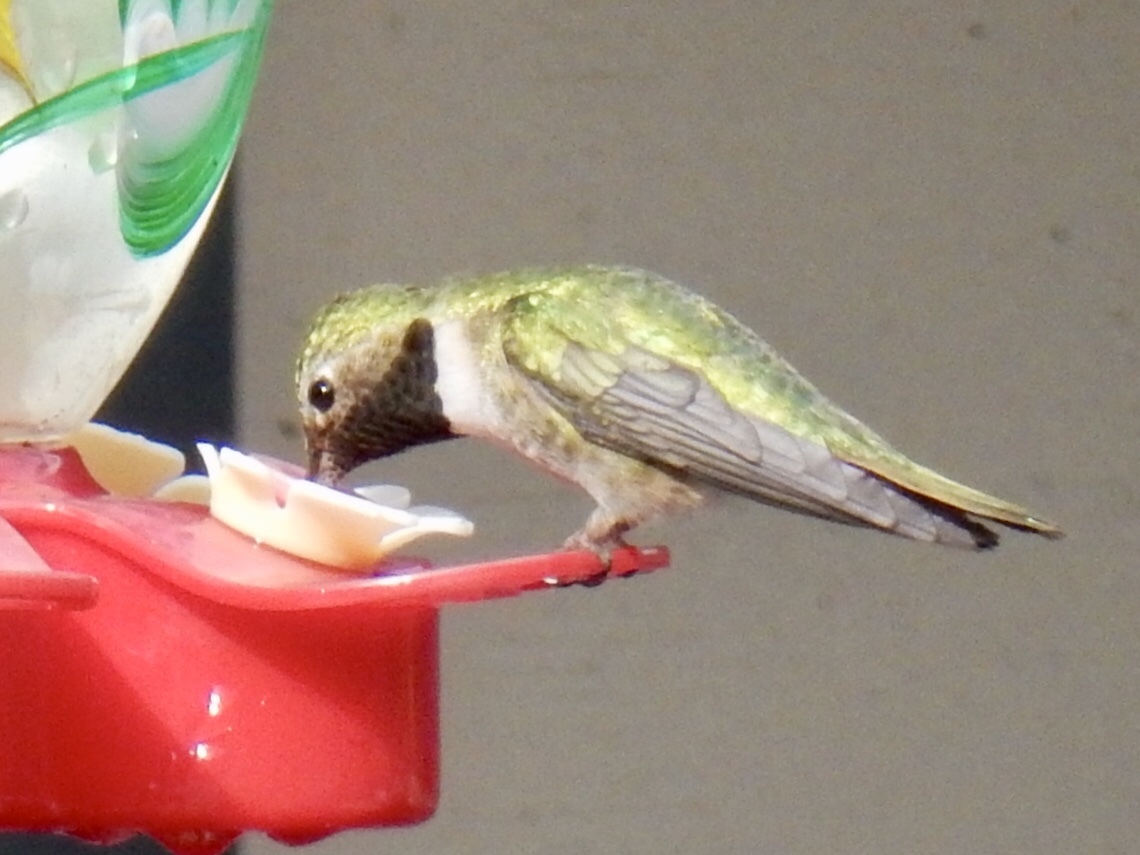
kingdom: Animalia
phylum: Chordata
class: Aves
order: Apodiformes
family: Trochilidae
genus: Selasphorus
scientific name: Selasphorus platycercus
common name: Broad-tailed hummingbird
